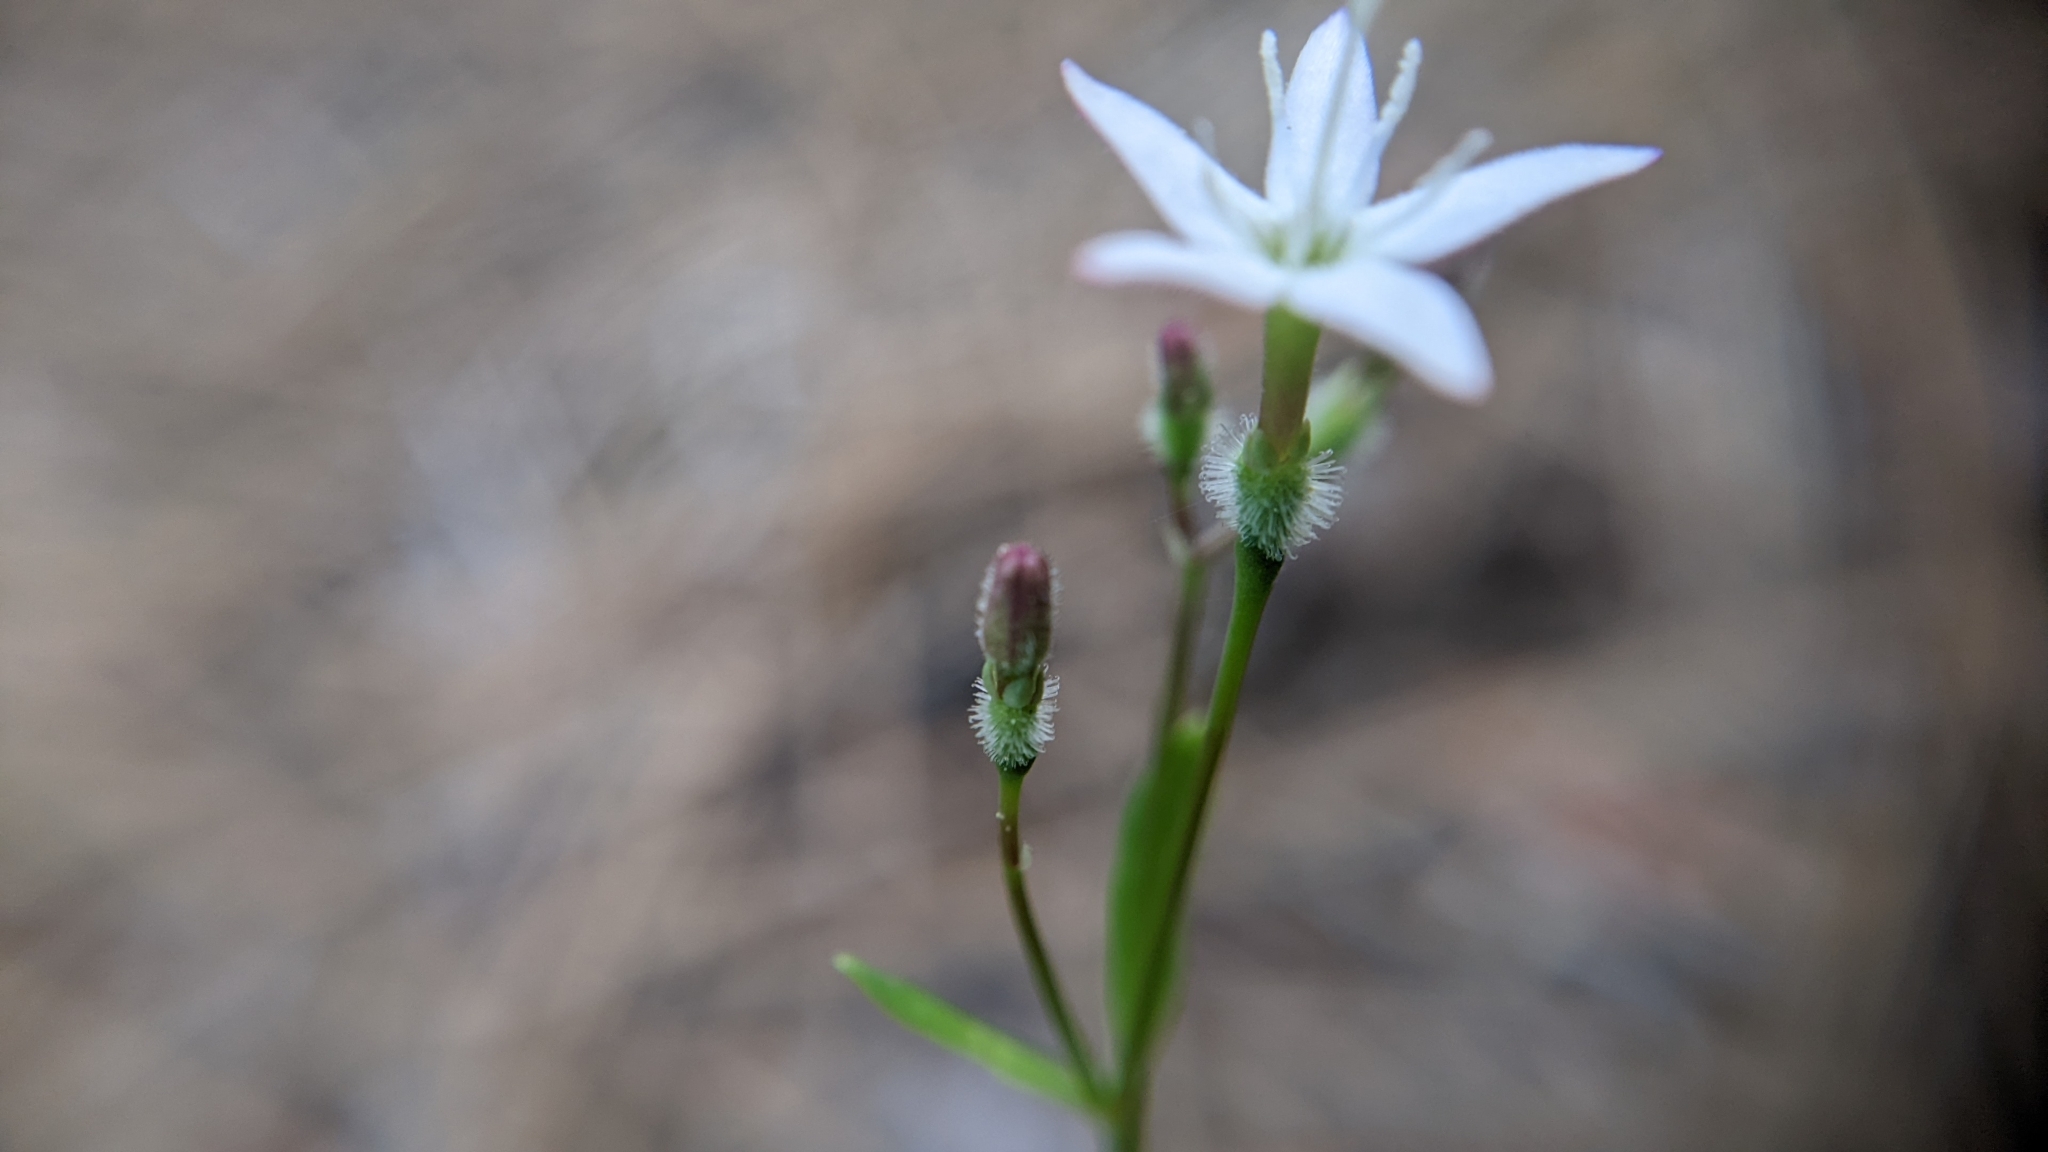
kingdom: Plantae
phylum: Tracheophyta
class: Magnoliopsida
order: Gentianales
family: Rubiaceae
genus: Kelloggia
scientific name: Kelloggia galioides
